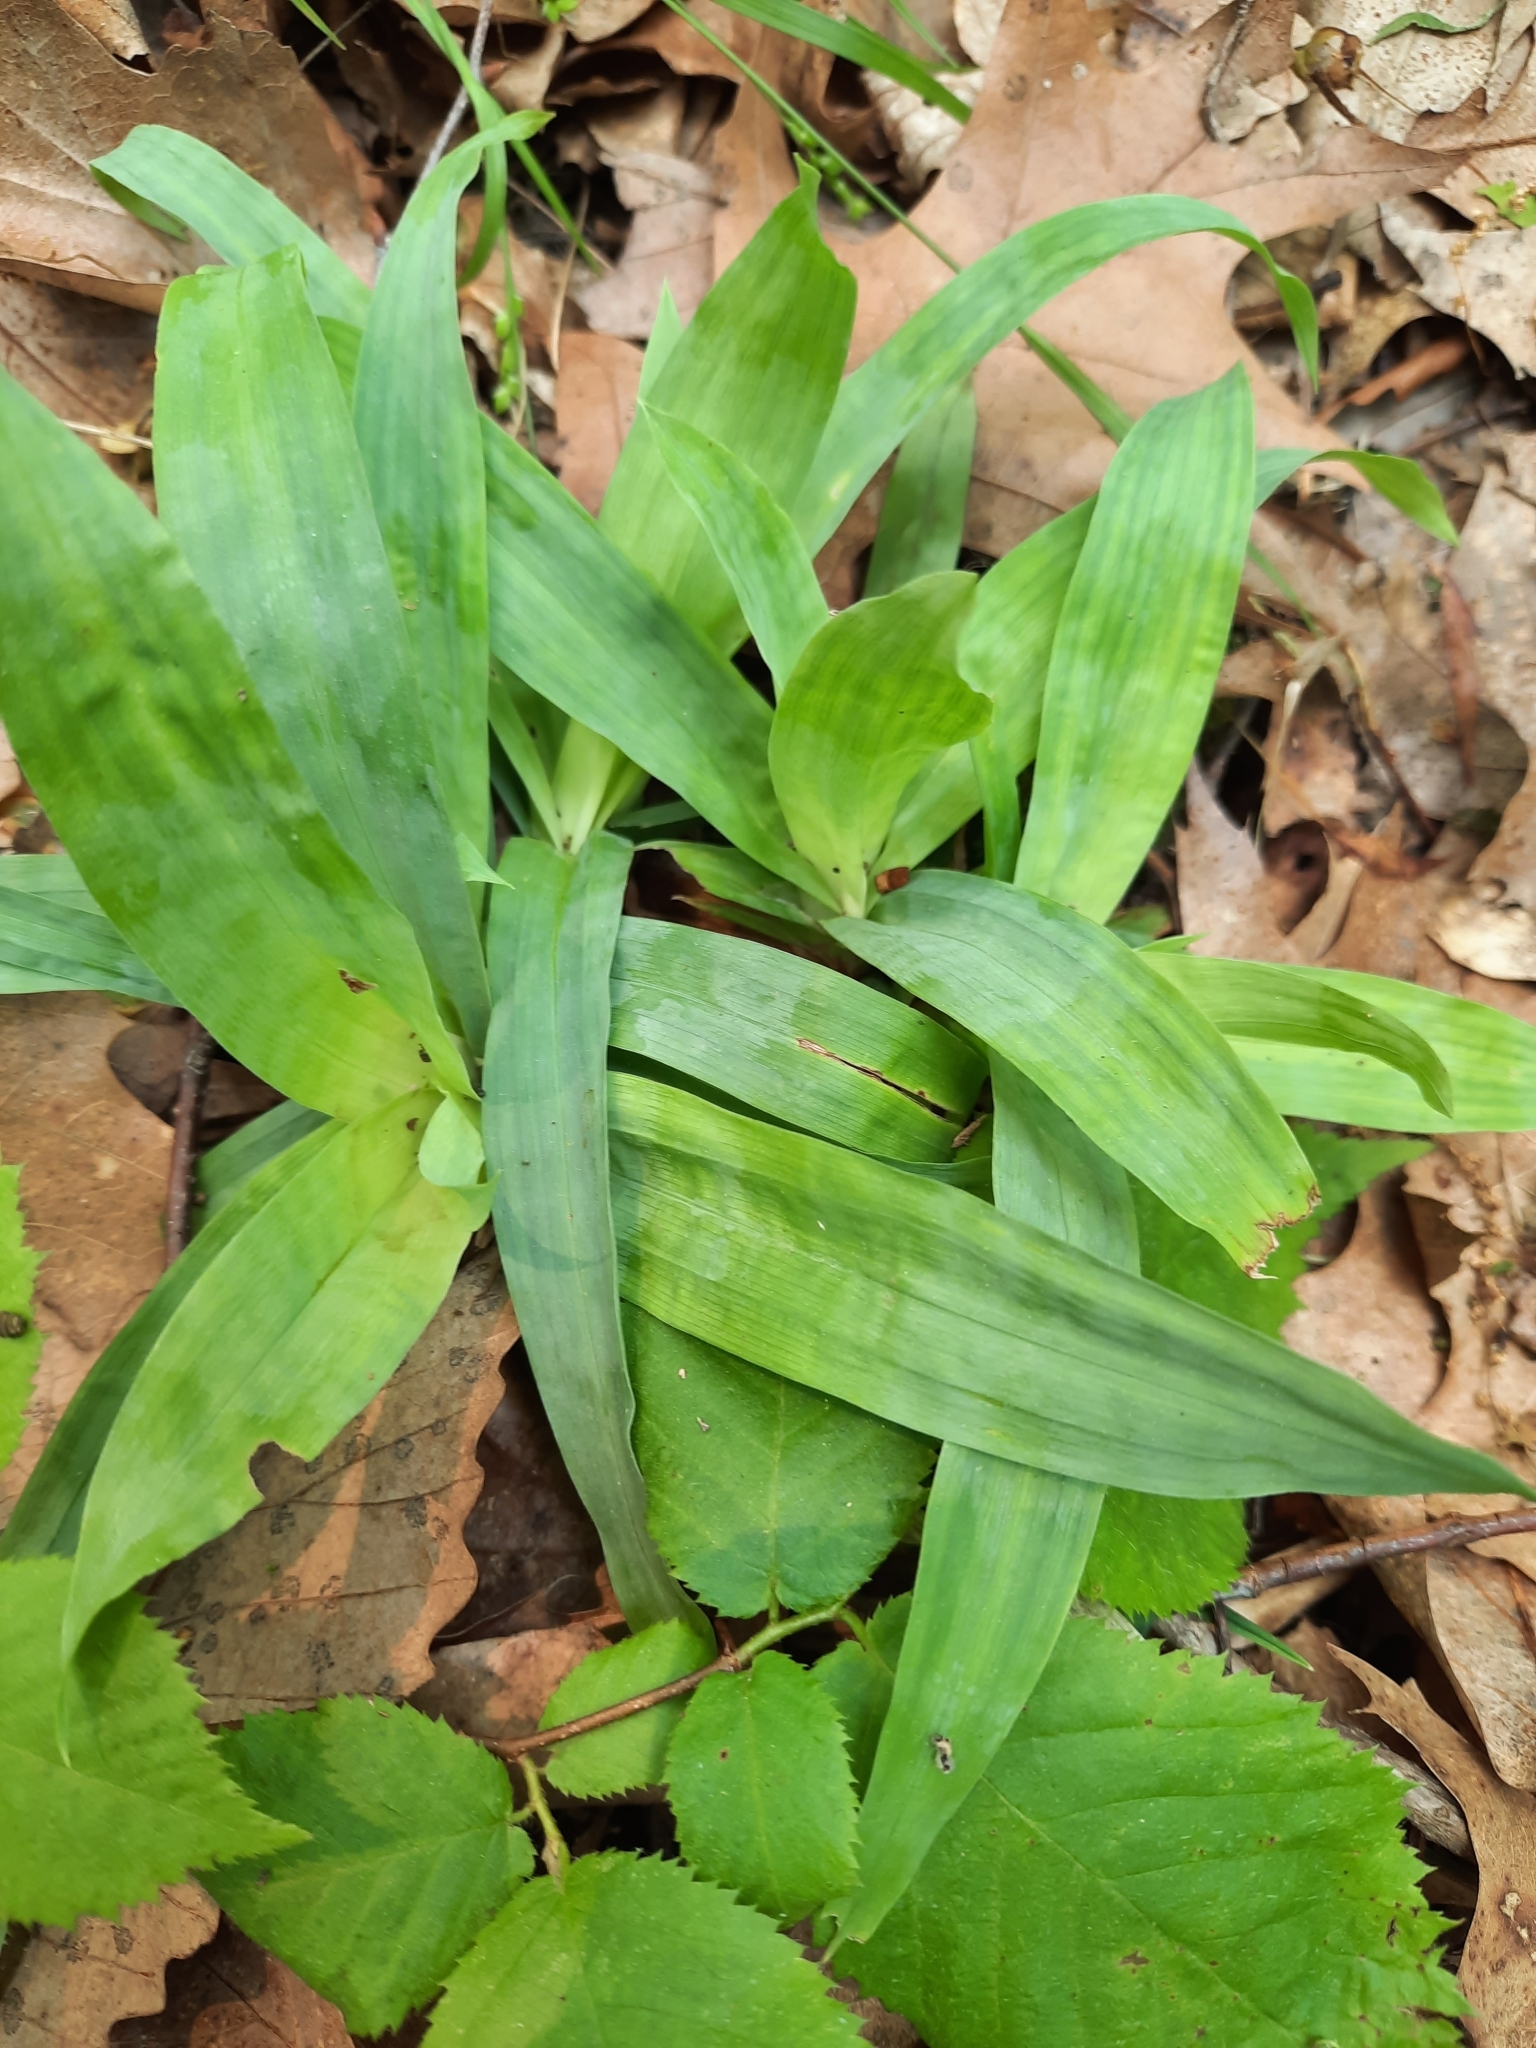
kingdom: Plantae
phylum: Tracheophyta
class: Liliopsida
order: Poales
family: Cyperaceae
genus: Carex
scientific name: Carex platyphylla
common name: Broad-leaved sedge
